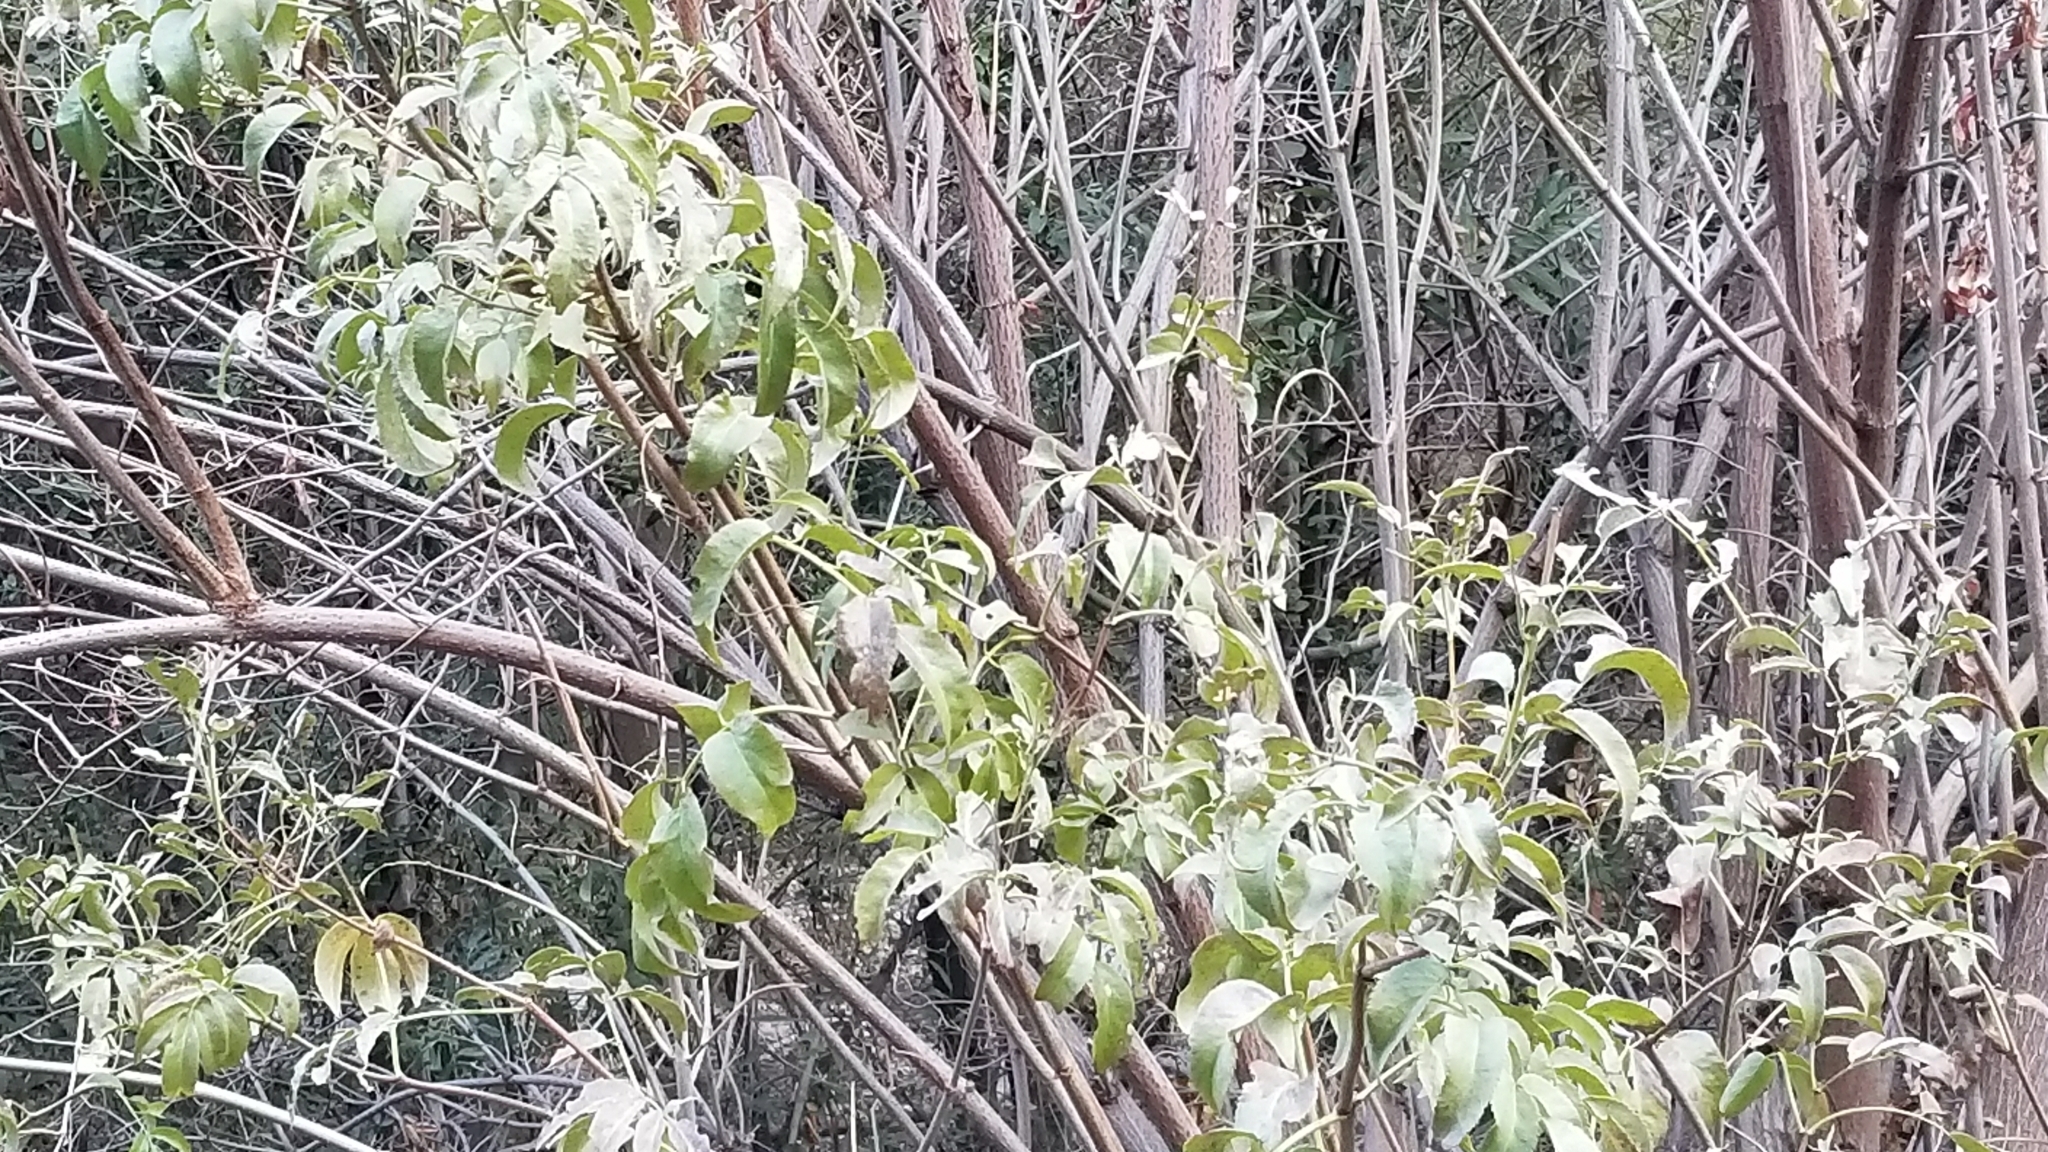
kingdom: Plantae
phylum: Tracheophyta
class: Magnoliopsida
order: Dipsacales
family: Viburnaceae
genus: Sambucus
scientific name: Sambucus cerulea
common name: Blue elder
